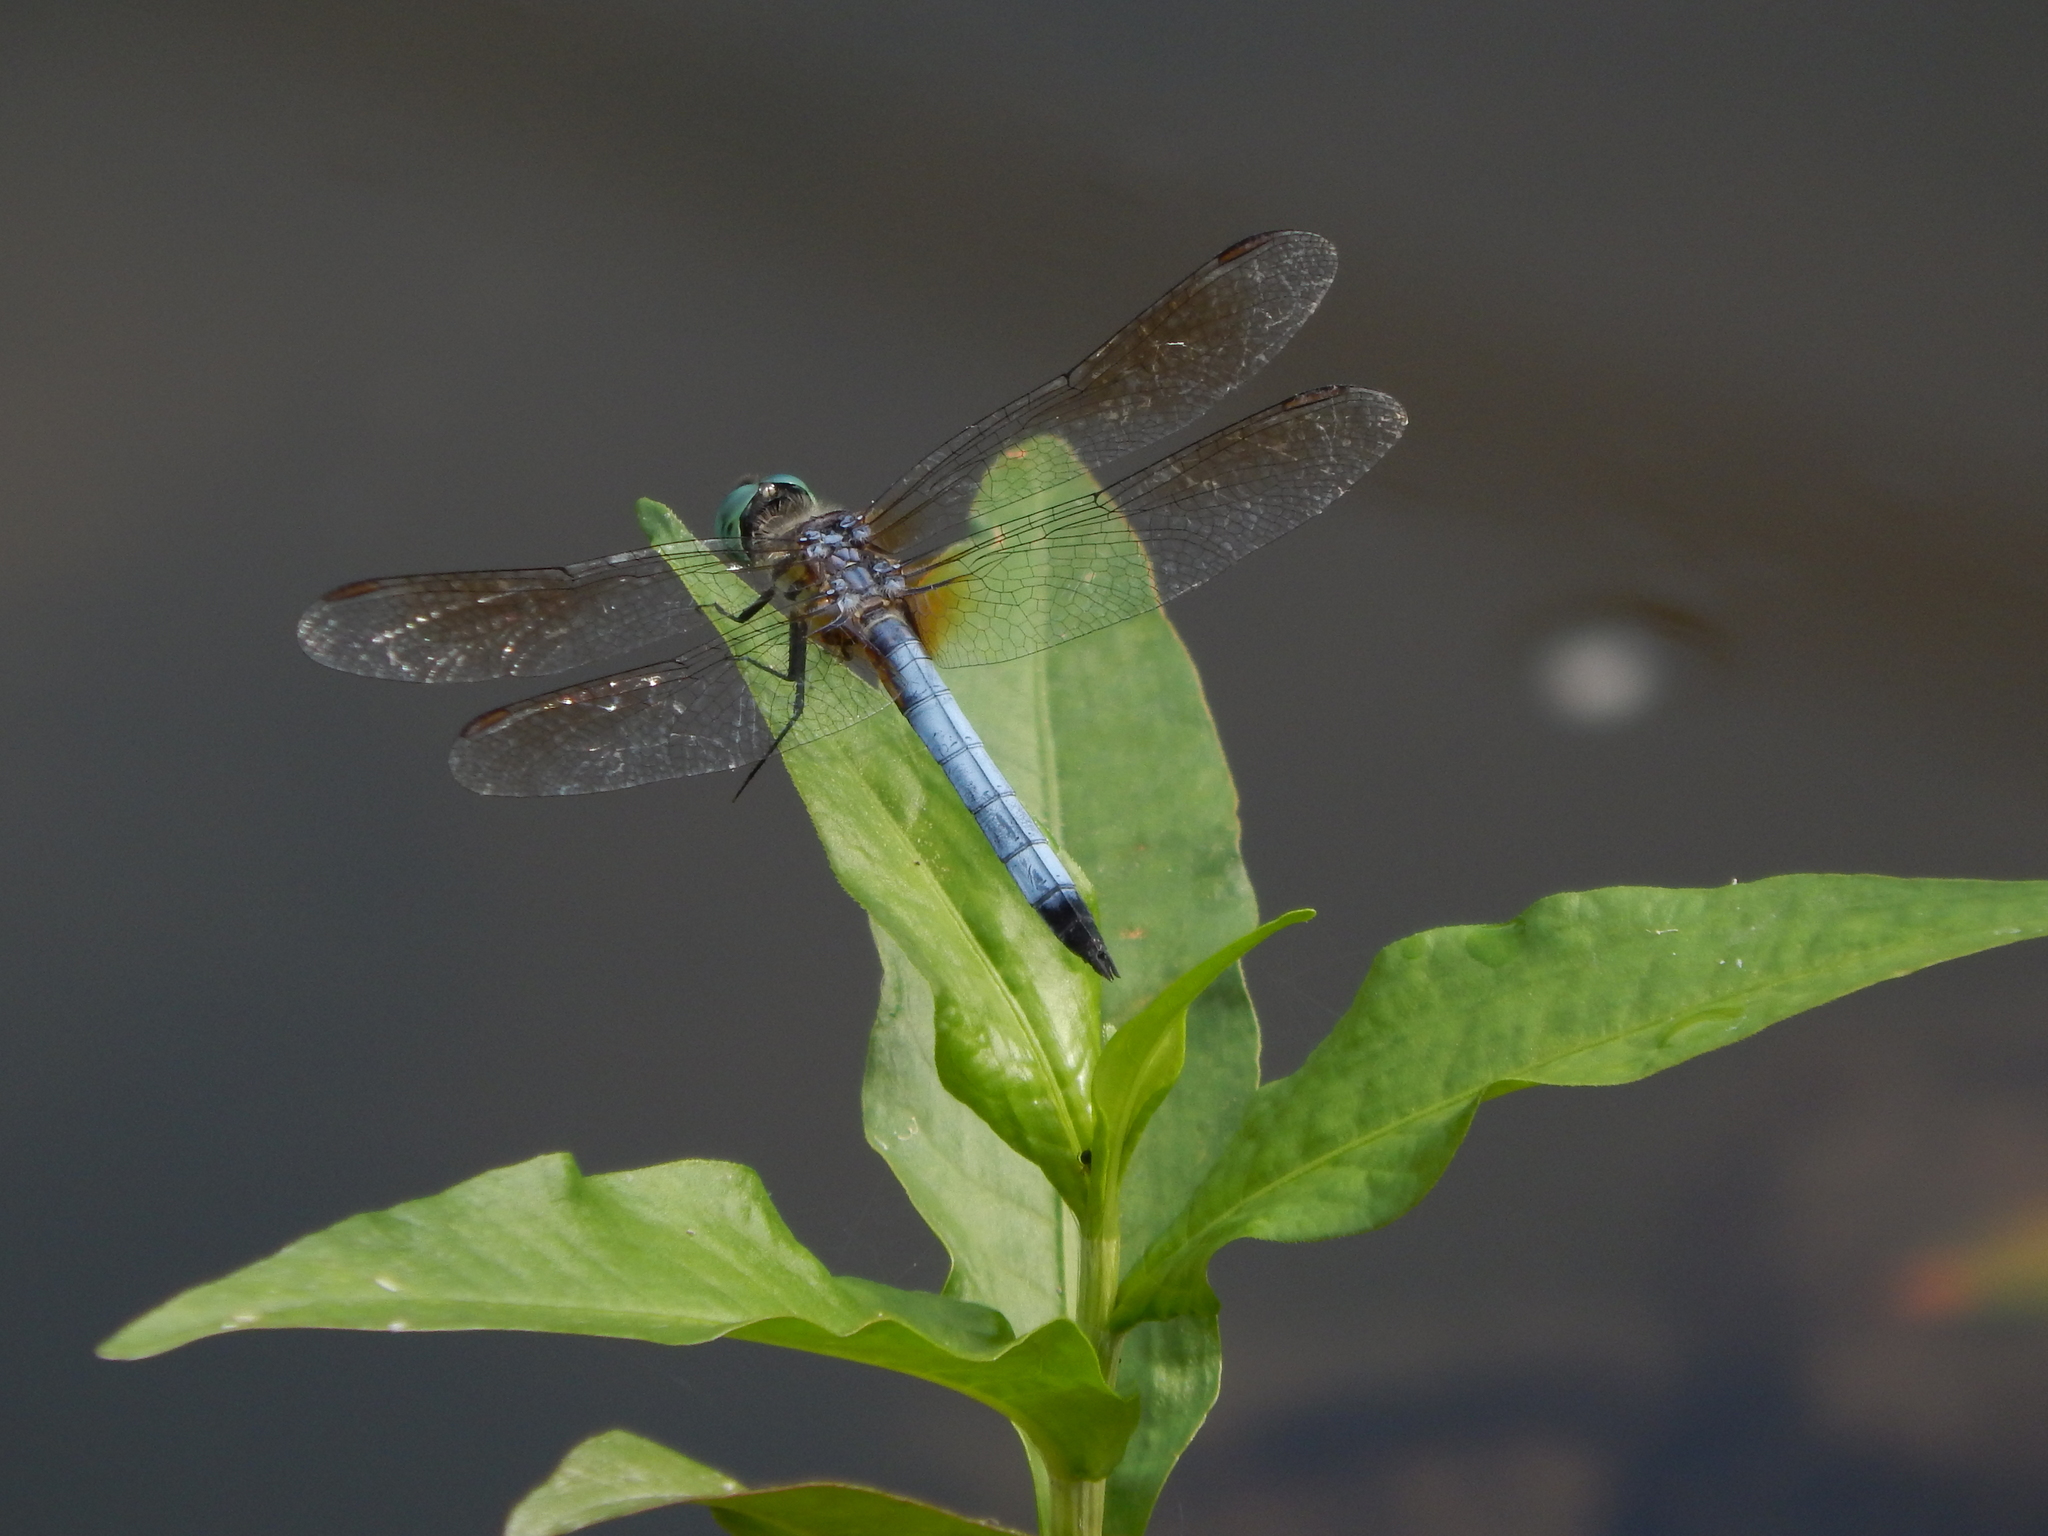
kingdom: Animalia
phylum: Arthropoda
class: Insecta
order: Odonata
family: Libellulidae
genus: Pachydiplax
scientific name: Pachydiplax longipennis
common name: Blue dasher
